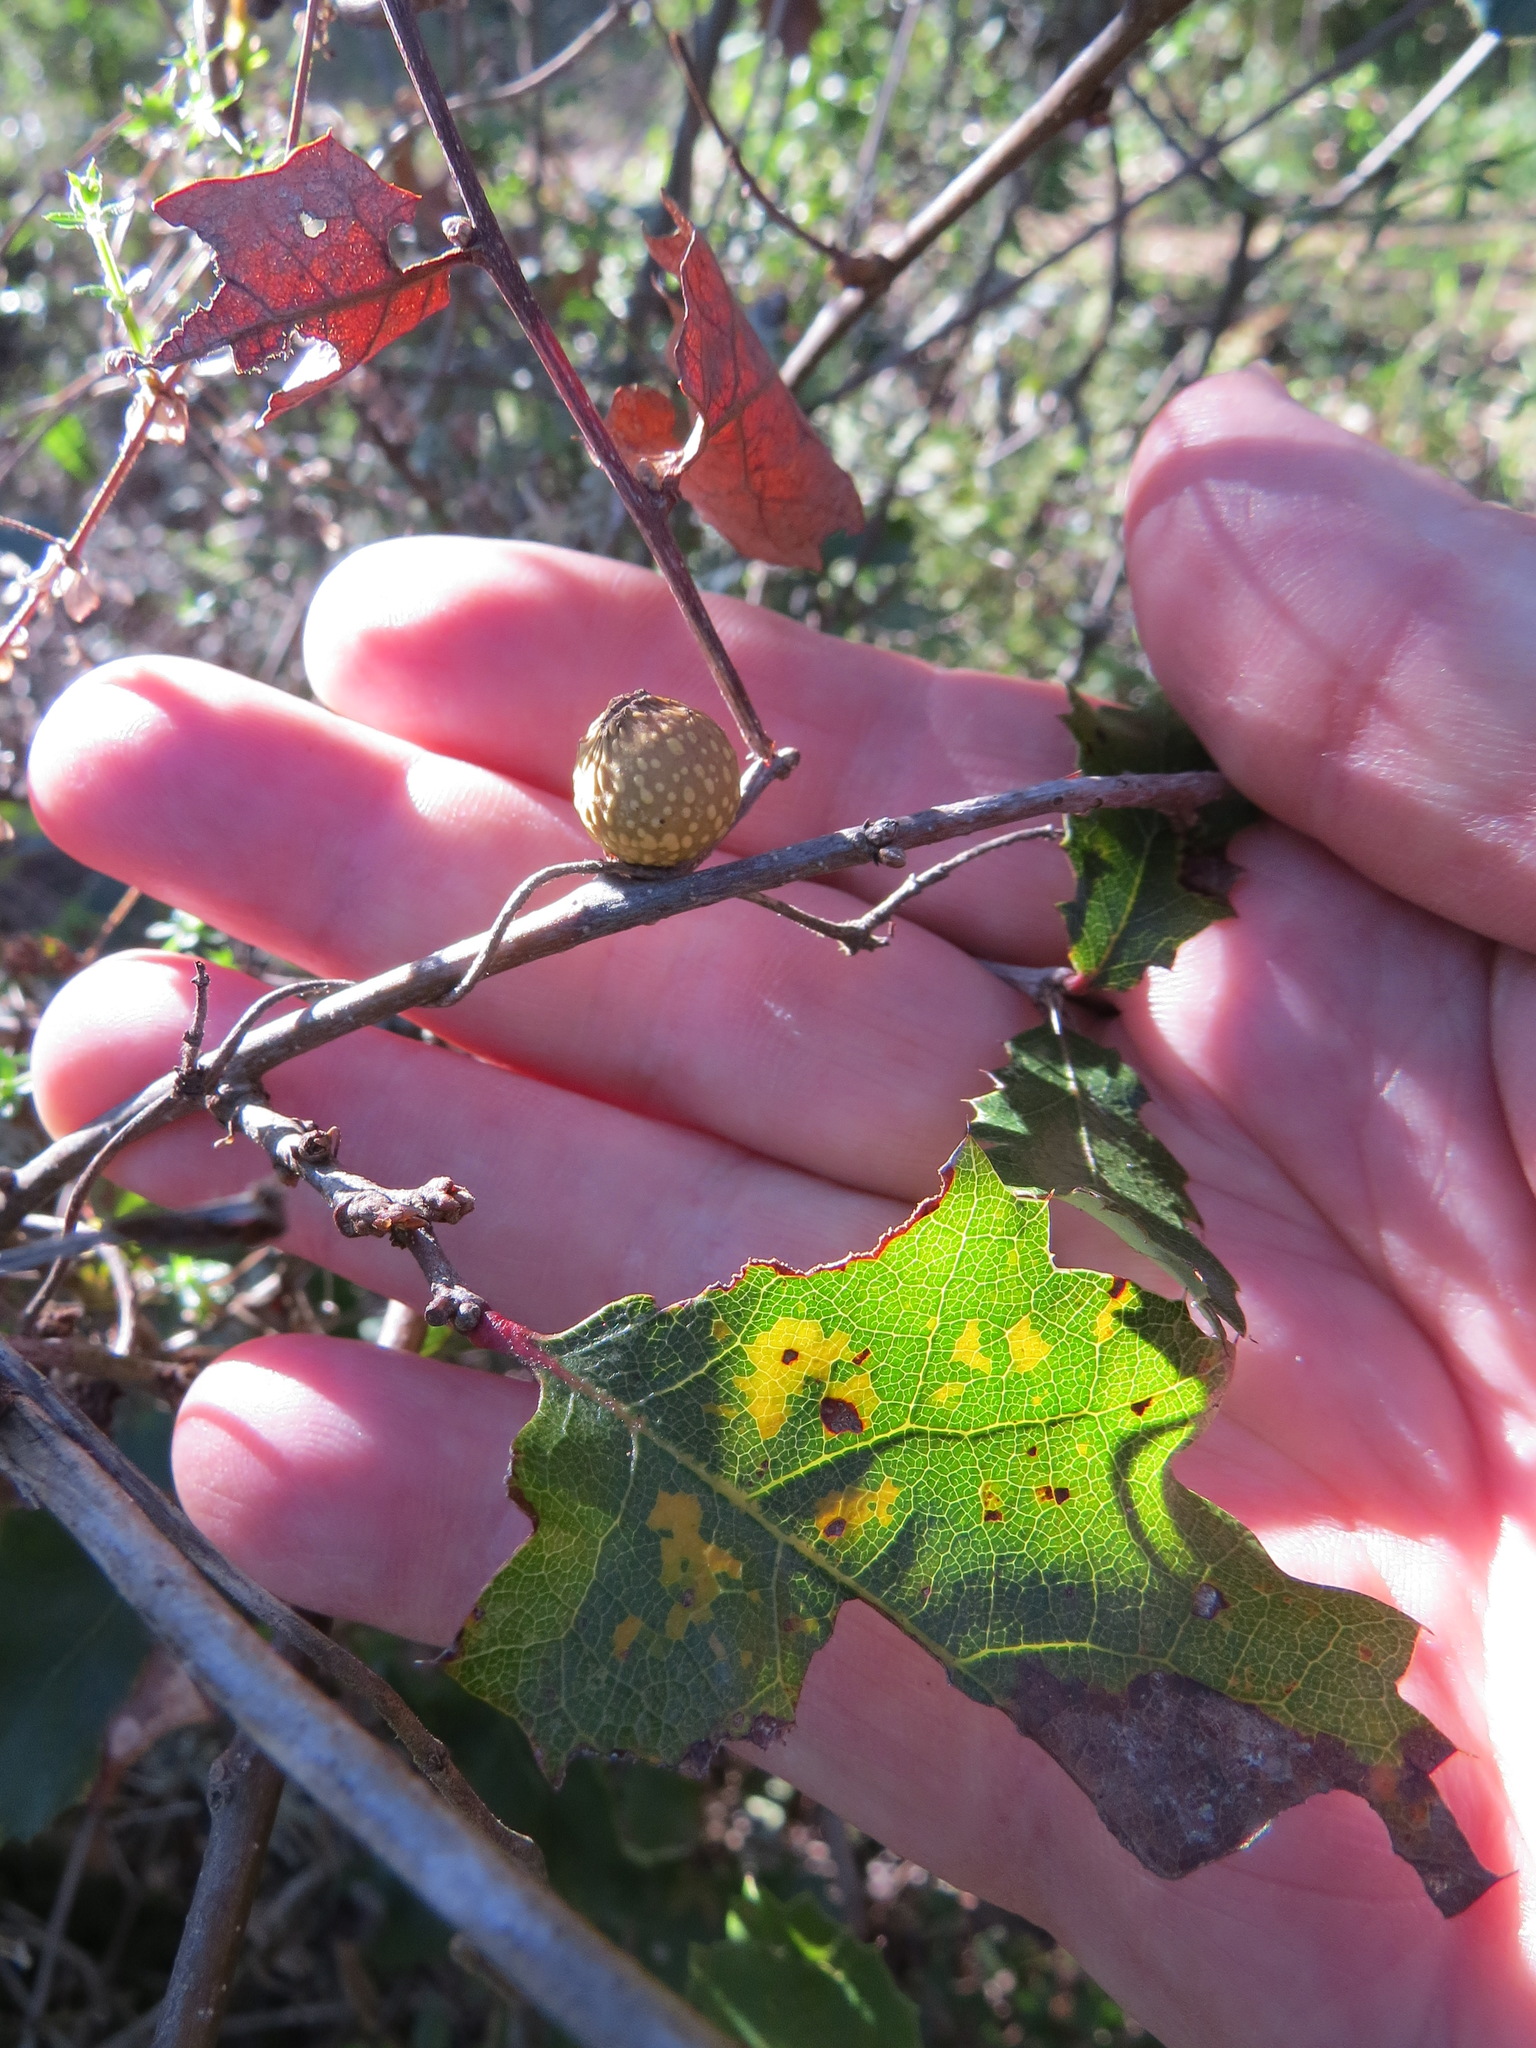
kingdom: Animalia
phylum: Arthropoda
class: Insecta
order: Hymenoptera
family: Cynipidae
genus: Burnettweldia
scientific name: Burnettweldia
